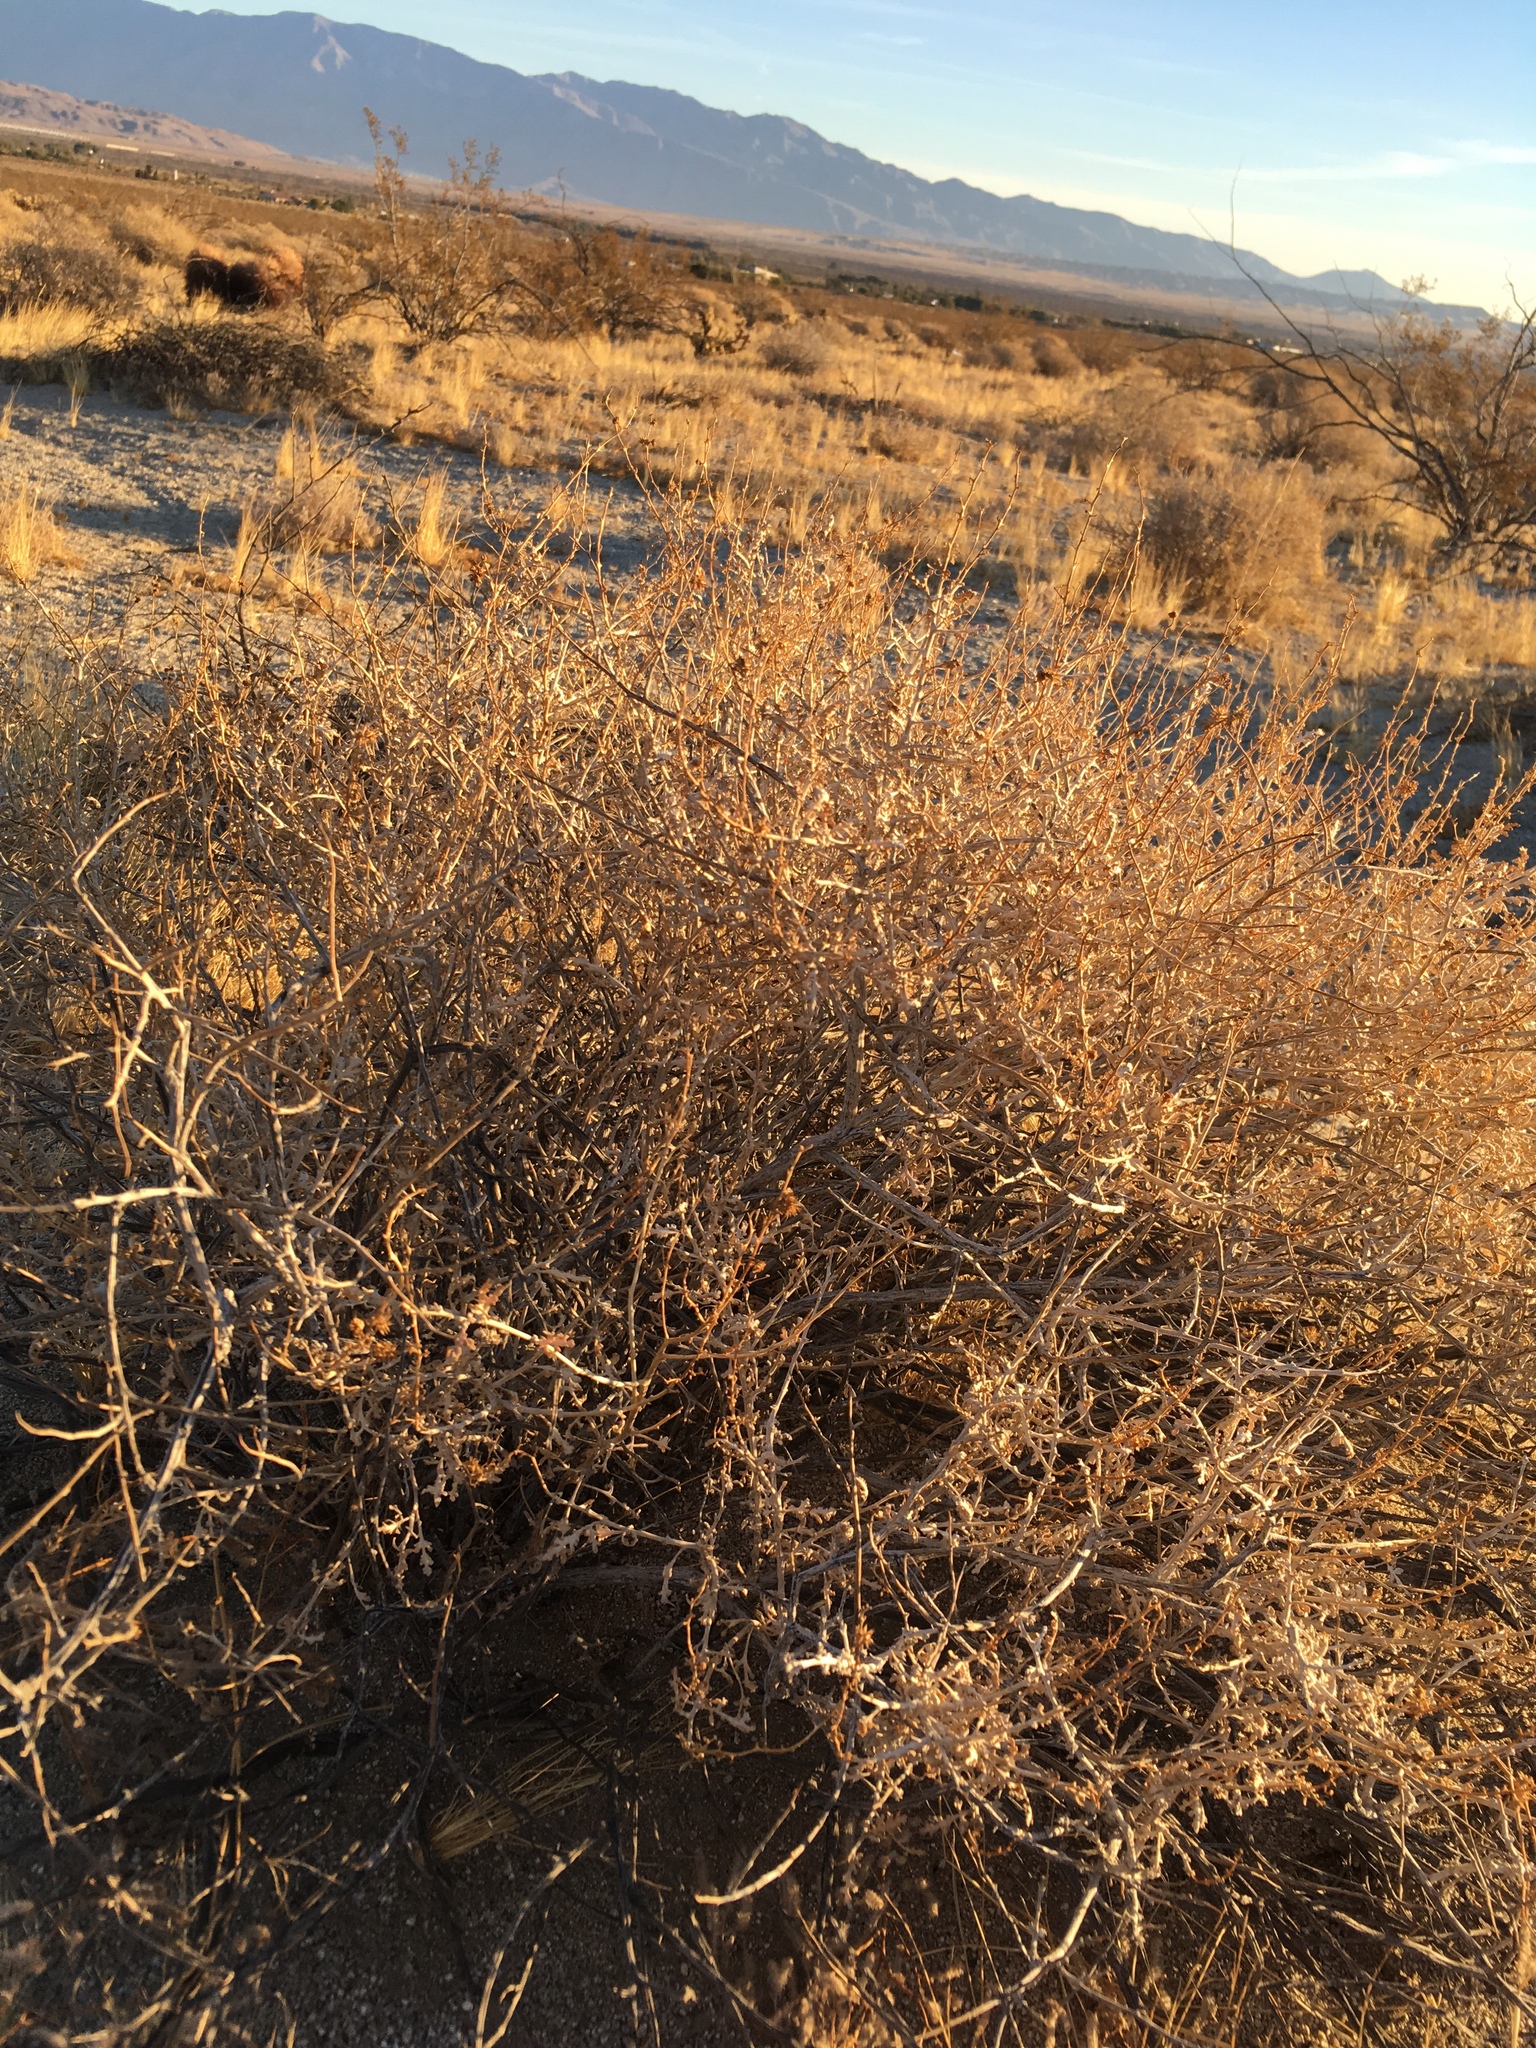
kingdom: Plantae
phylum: Tracheophyta
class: Magnoliopsida
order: Asterales
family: Asteraceae
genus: Ambrosia
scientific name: Ambrosia dumosa
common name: Bur-sage
